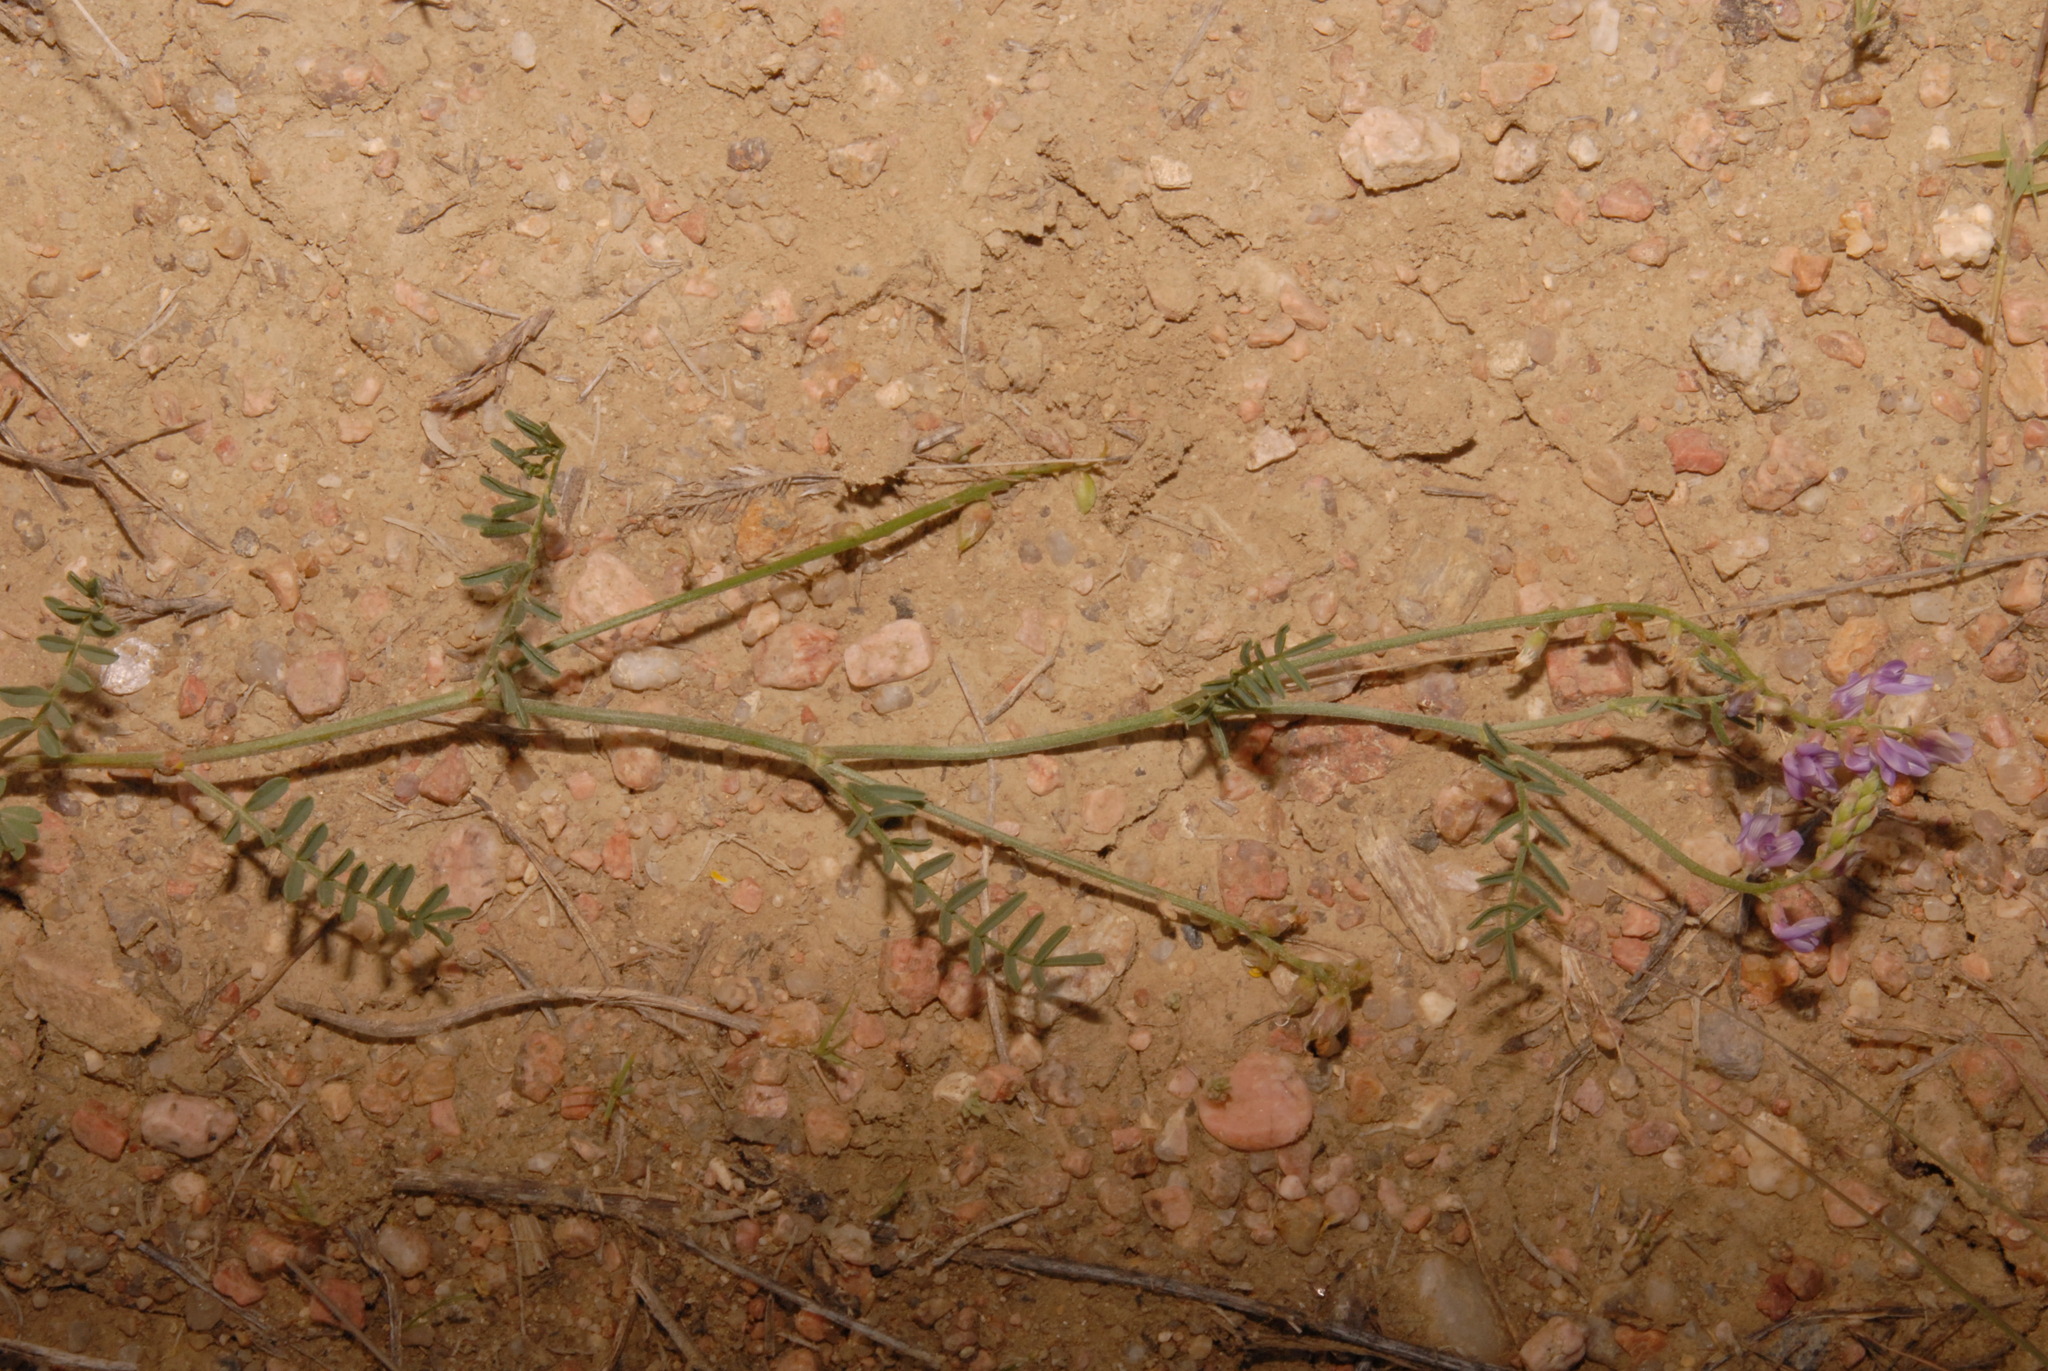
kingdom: Plantae
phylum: Tracheophyta
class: Magnoliopsida
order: Fabales
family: Fabaceae
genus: Astragalus
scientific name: Astragalus gracilis
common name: Slender milk-vetch
